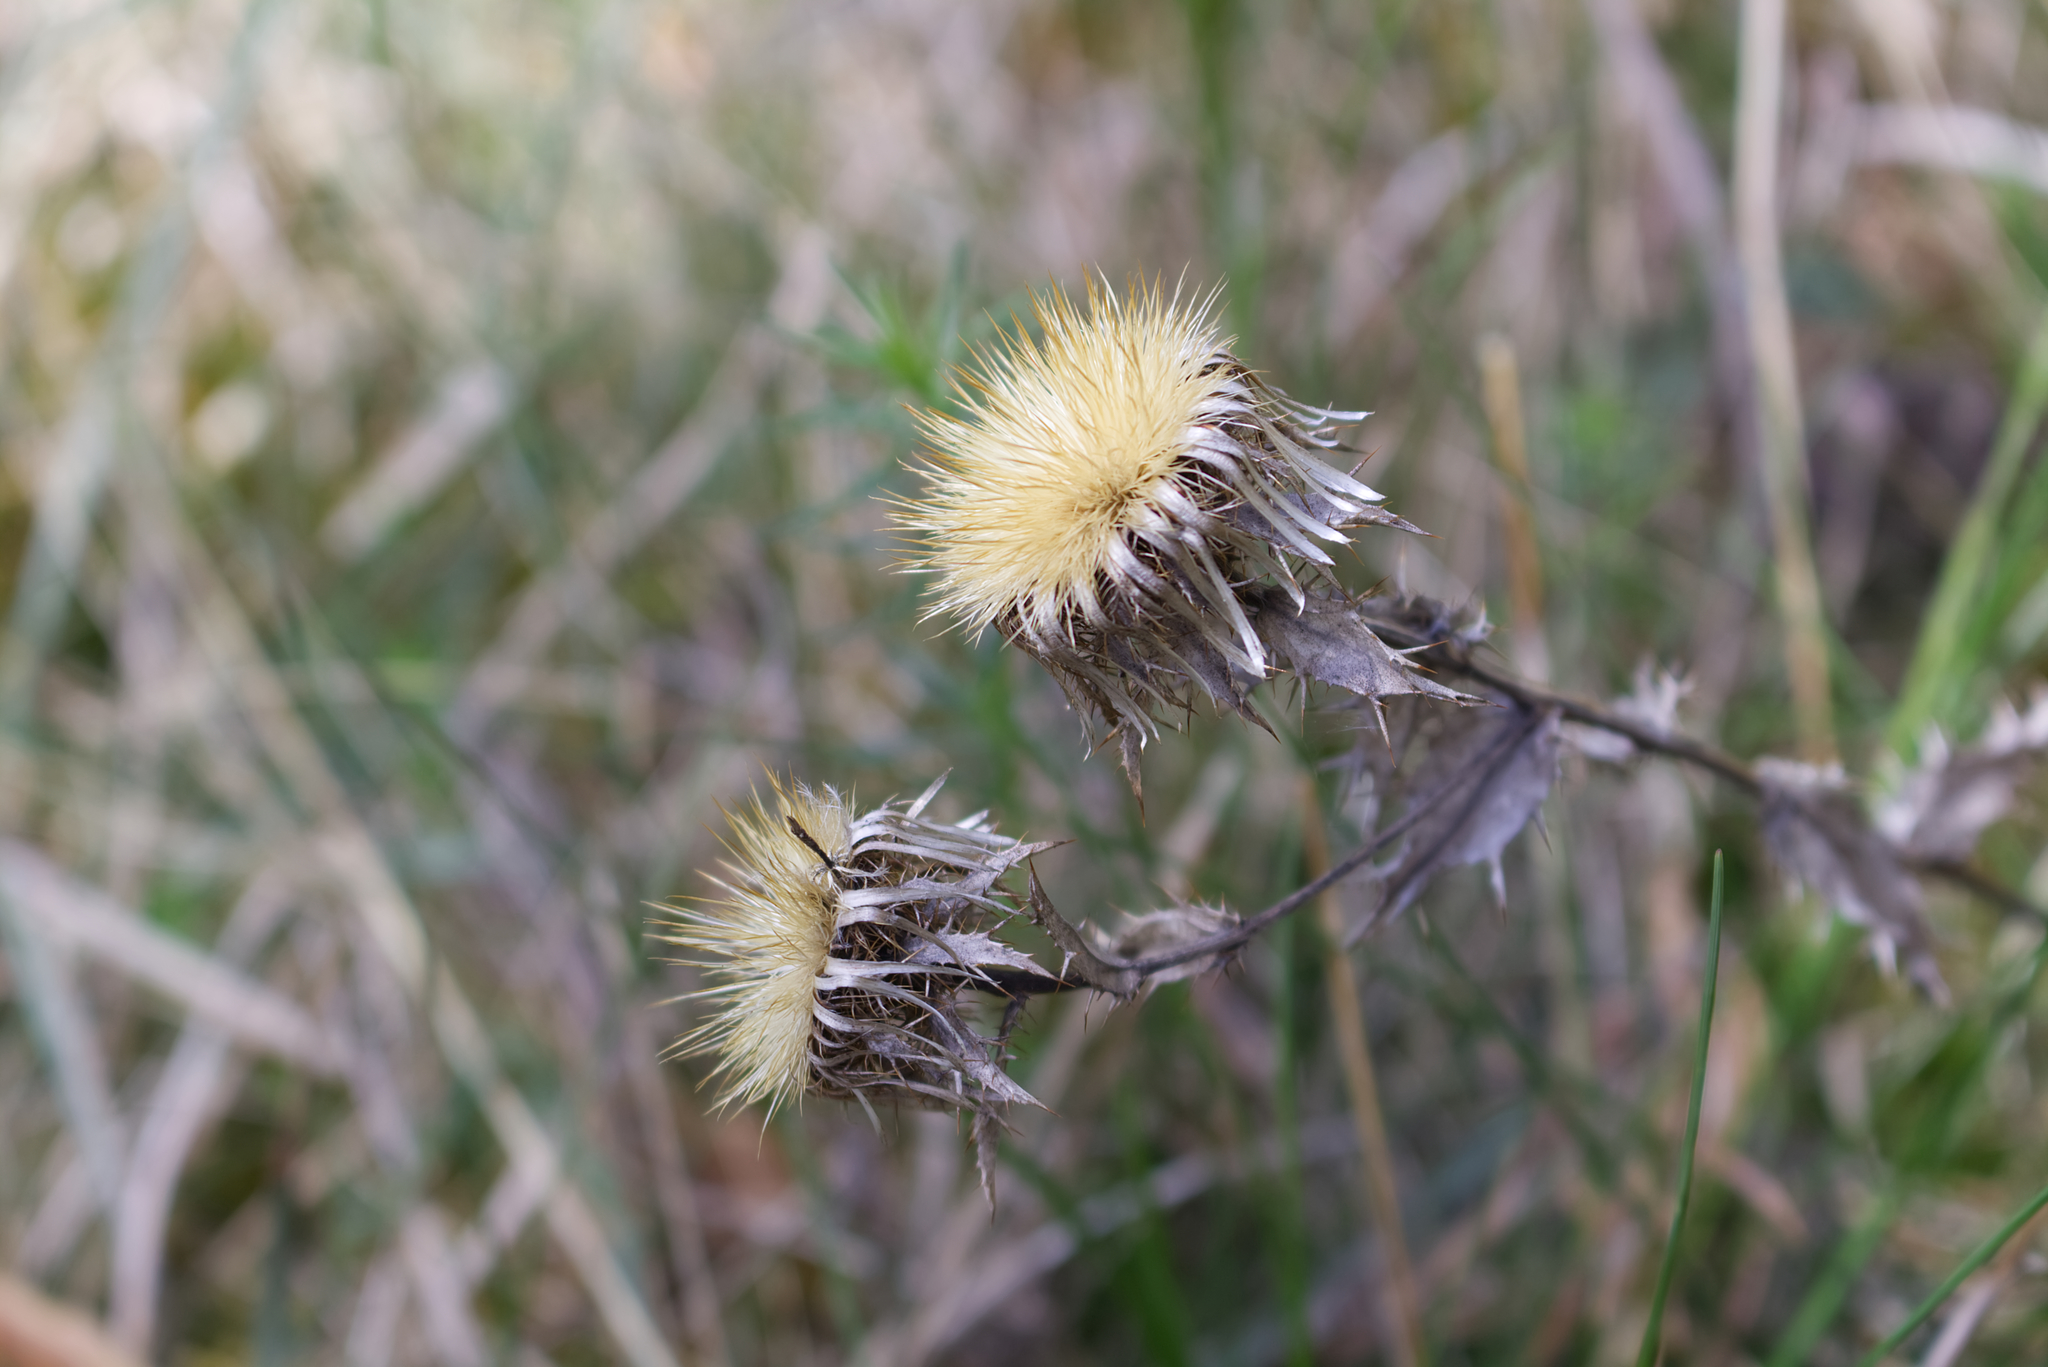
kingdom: Plantae
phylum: Tracheophyta
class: Magnoliopsida
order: Asterales
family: Asteraceae
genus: Carlina
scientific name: Carlina vulgaris
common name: Carline thistle
